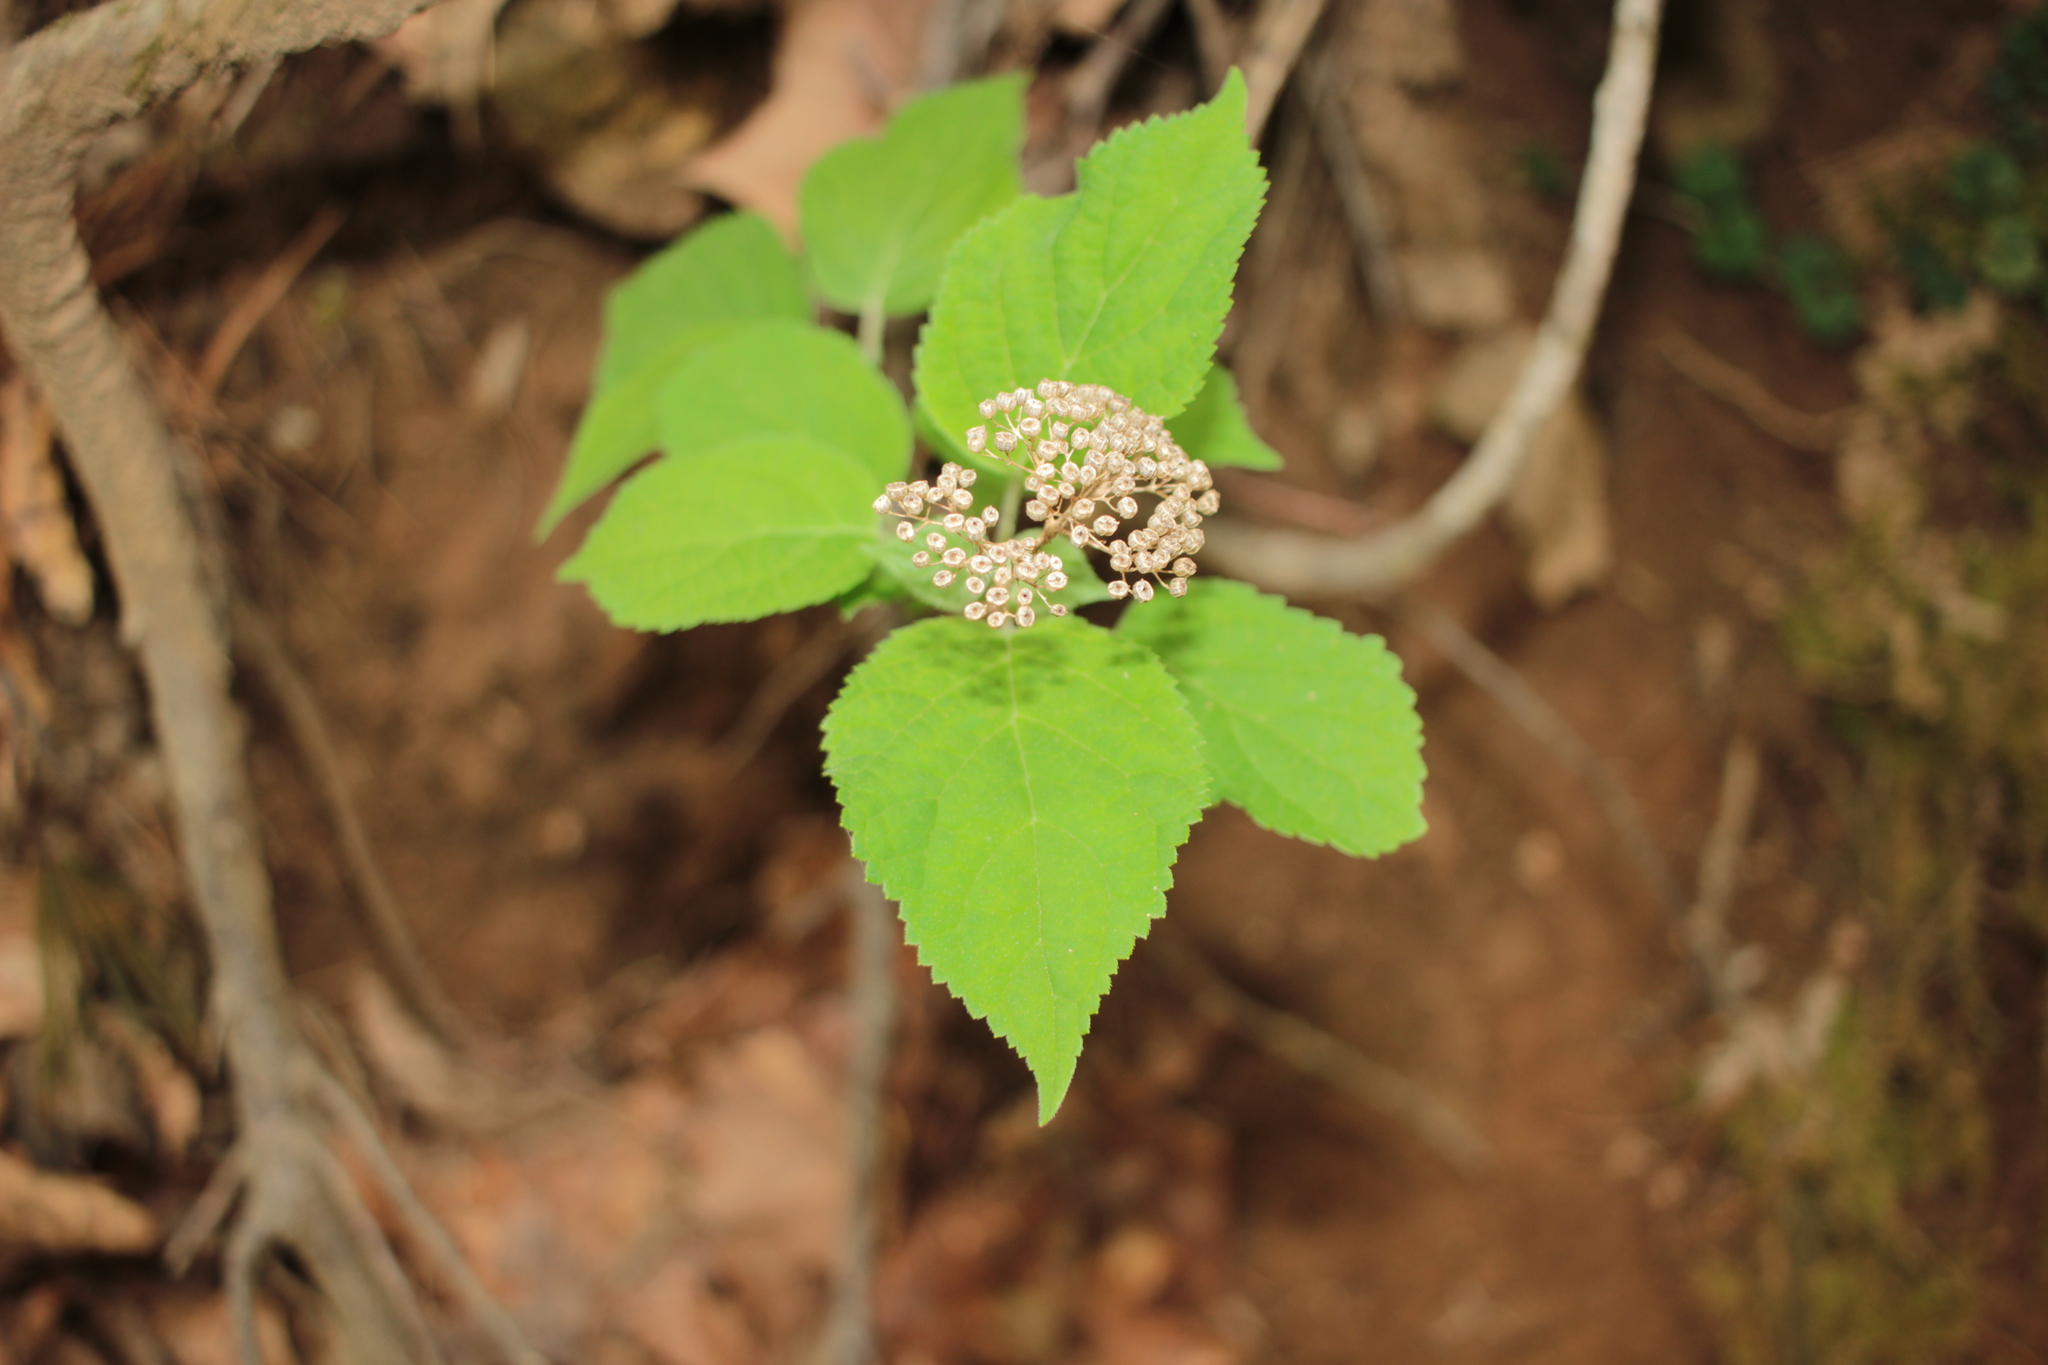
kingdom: Plantae
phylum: Tracheophyta
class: Magnoliopsida
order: Cornales
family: Hydrangeaceae
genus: Hydrangea
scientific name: Hydrangea arborescens
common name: Sevenbark
